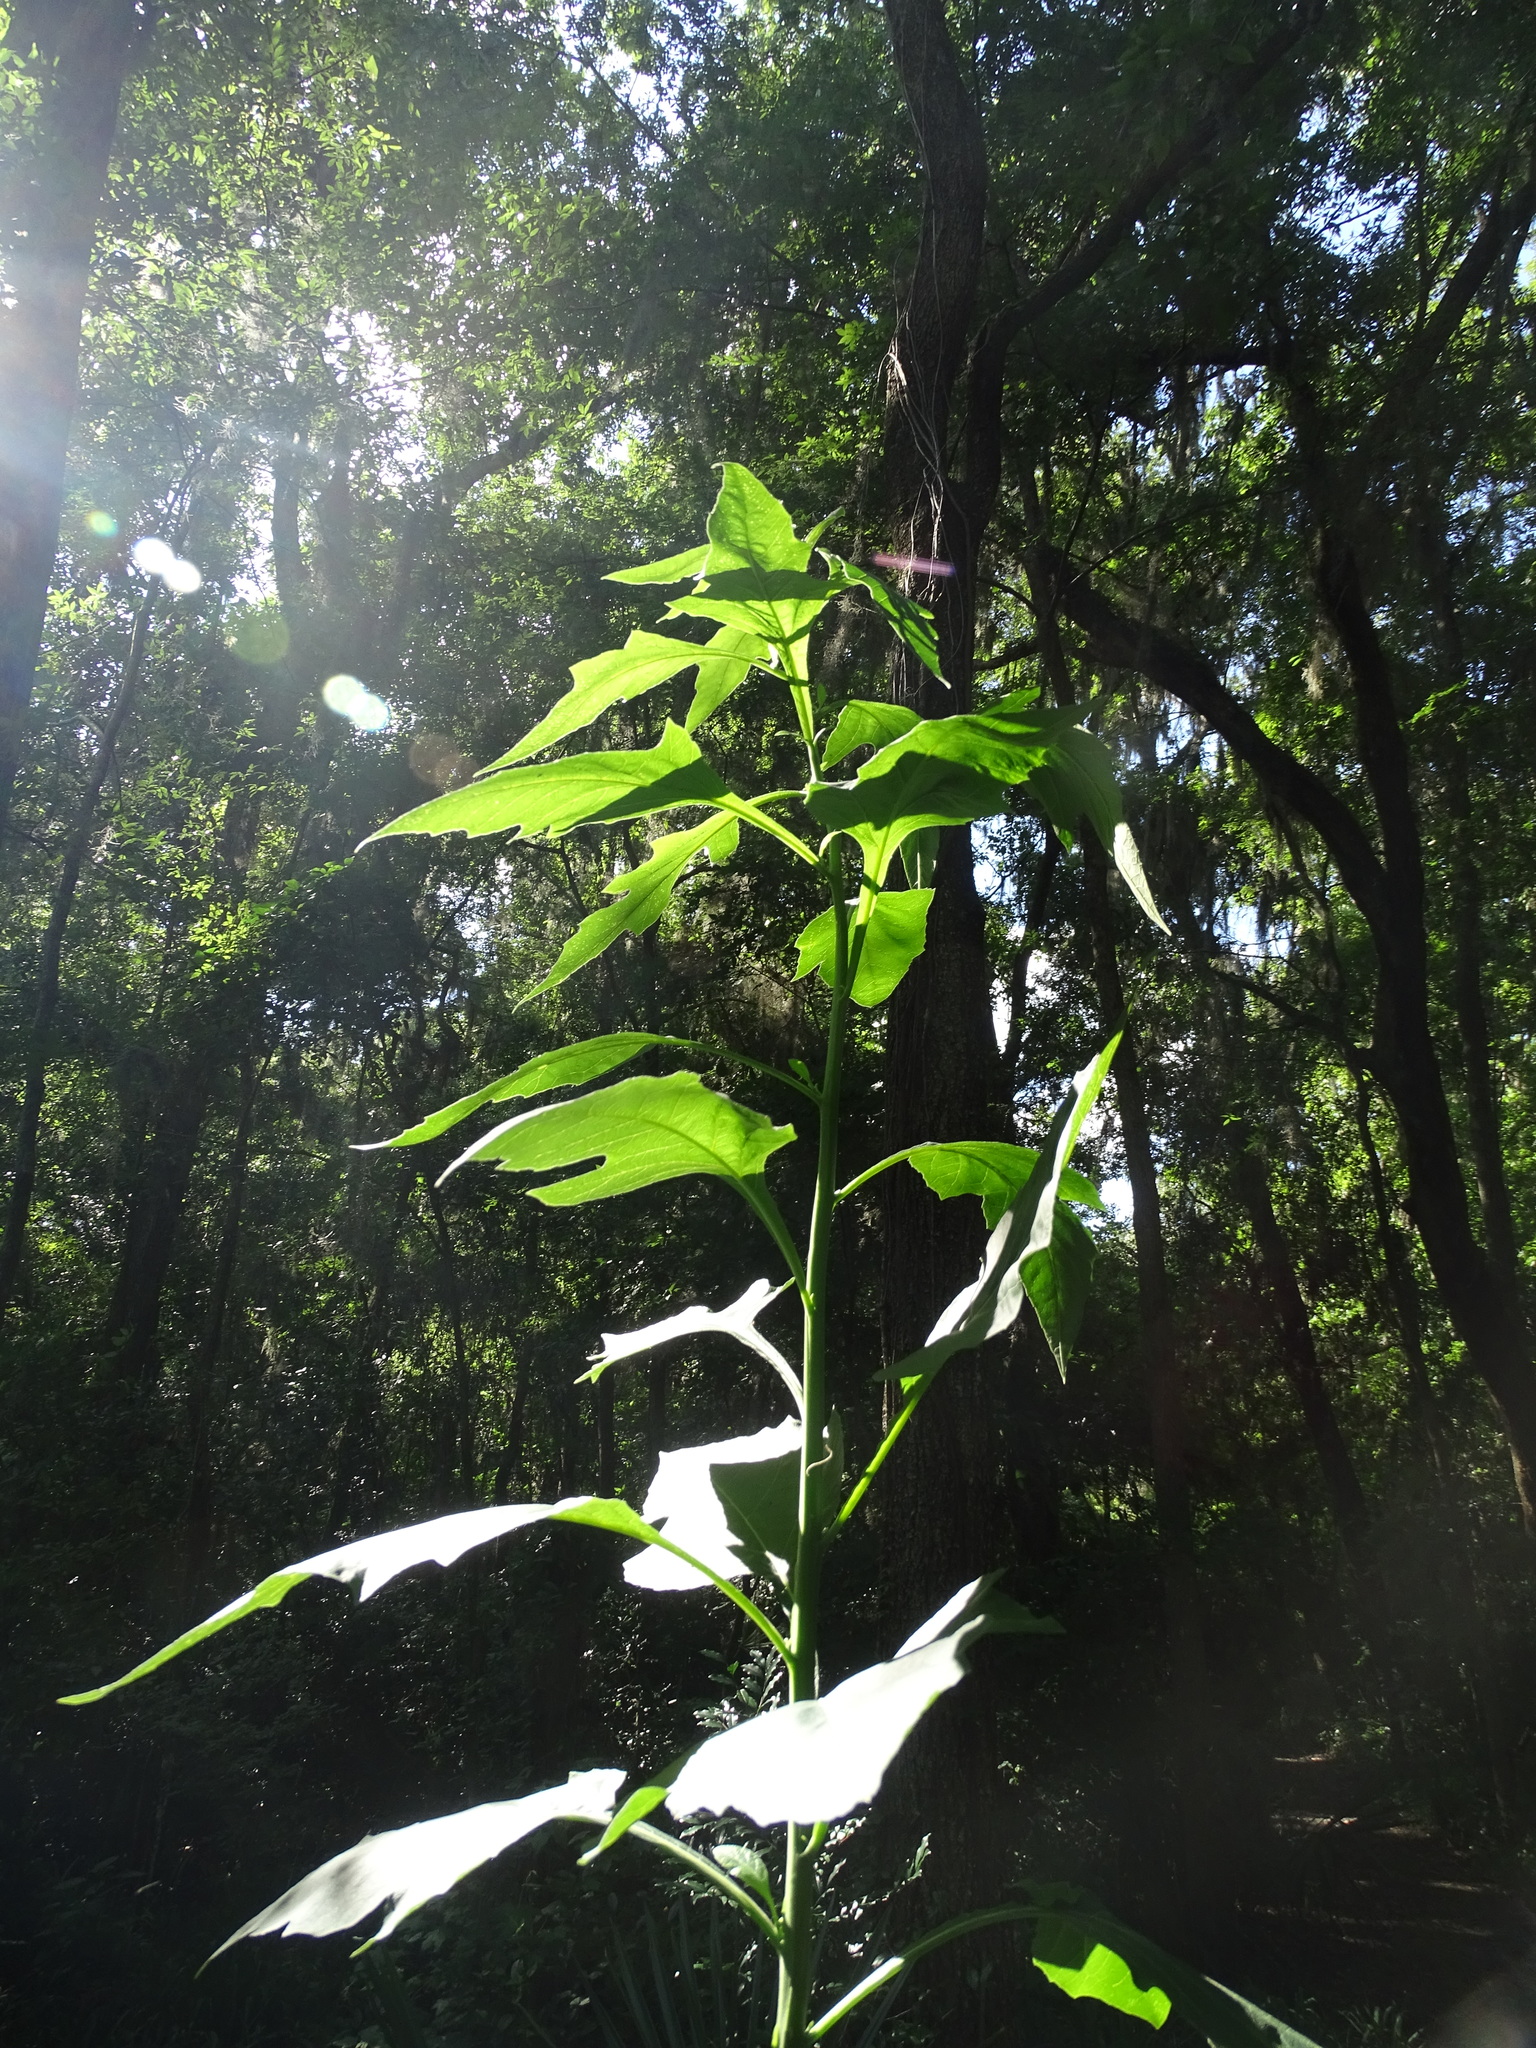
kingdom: Plantae
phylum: Tracheophyta
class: Magnoliopsida
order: Asterales
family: Asteraceae
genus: Verbesina
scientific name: Verbesina virginica
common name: Frostweed
